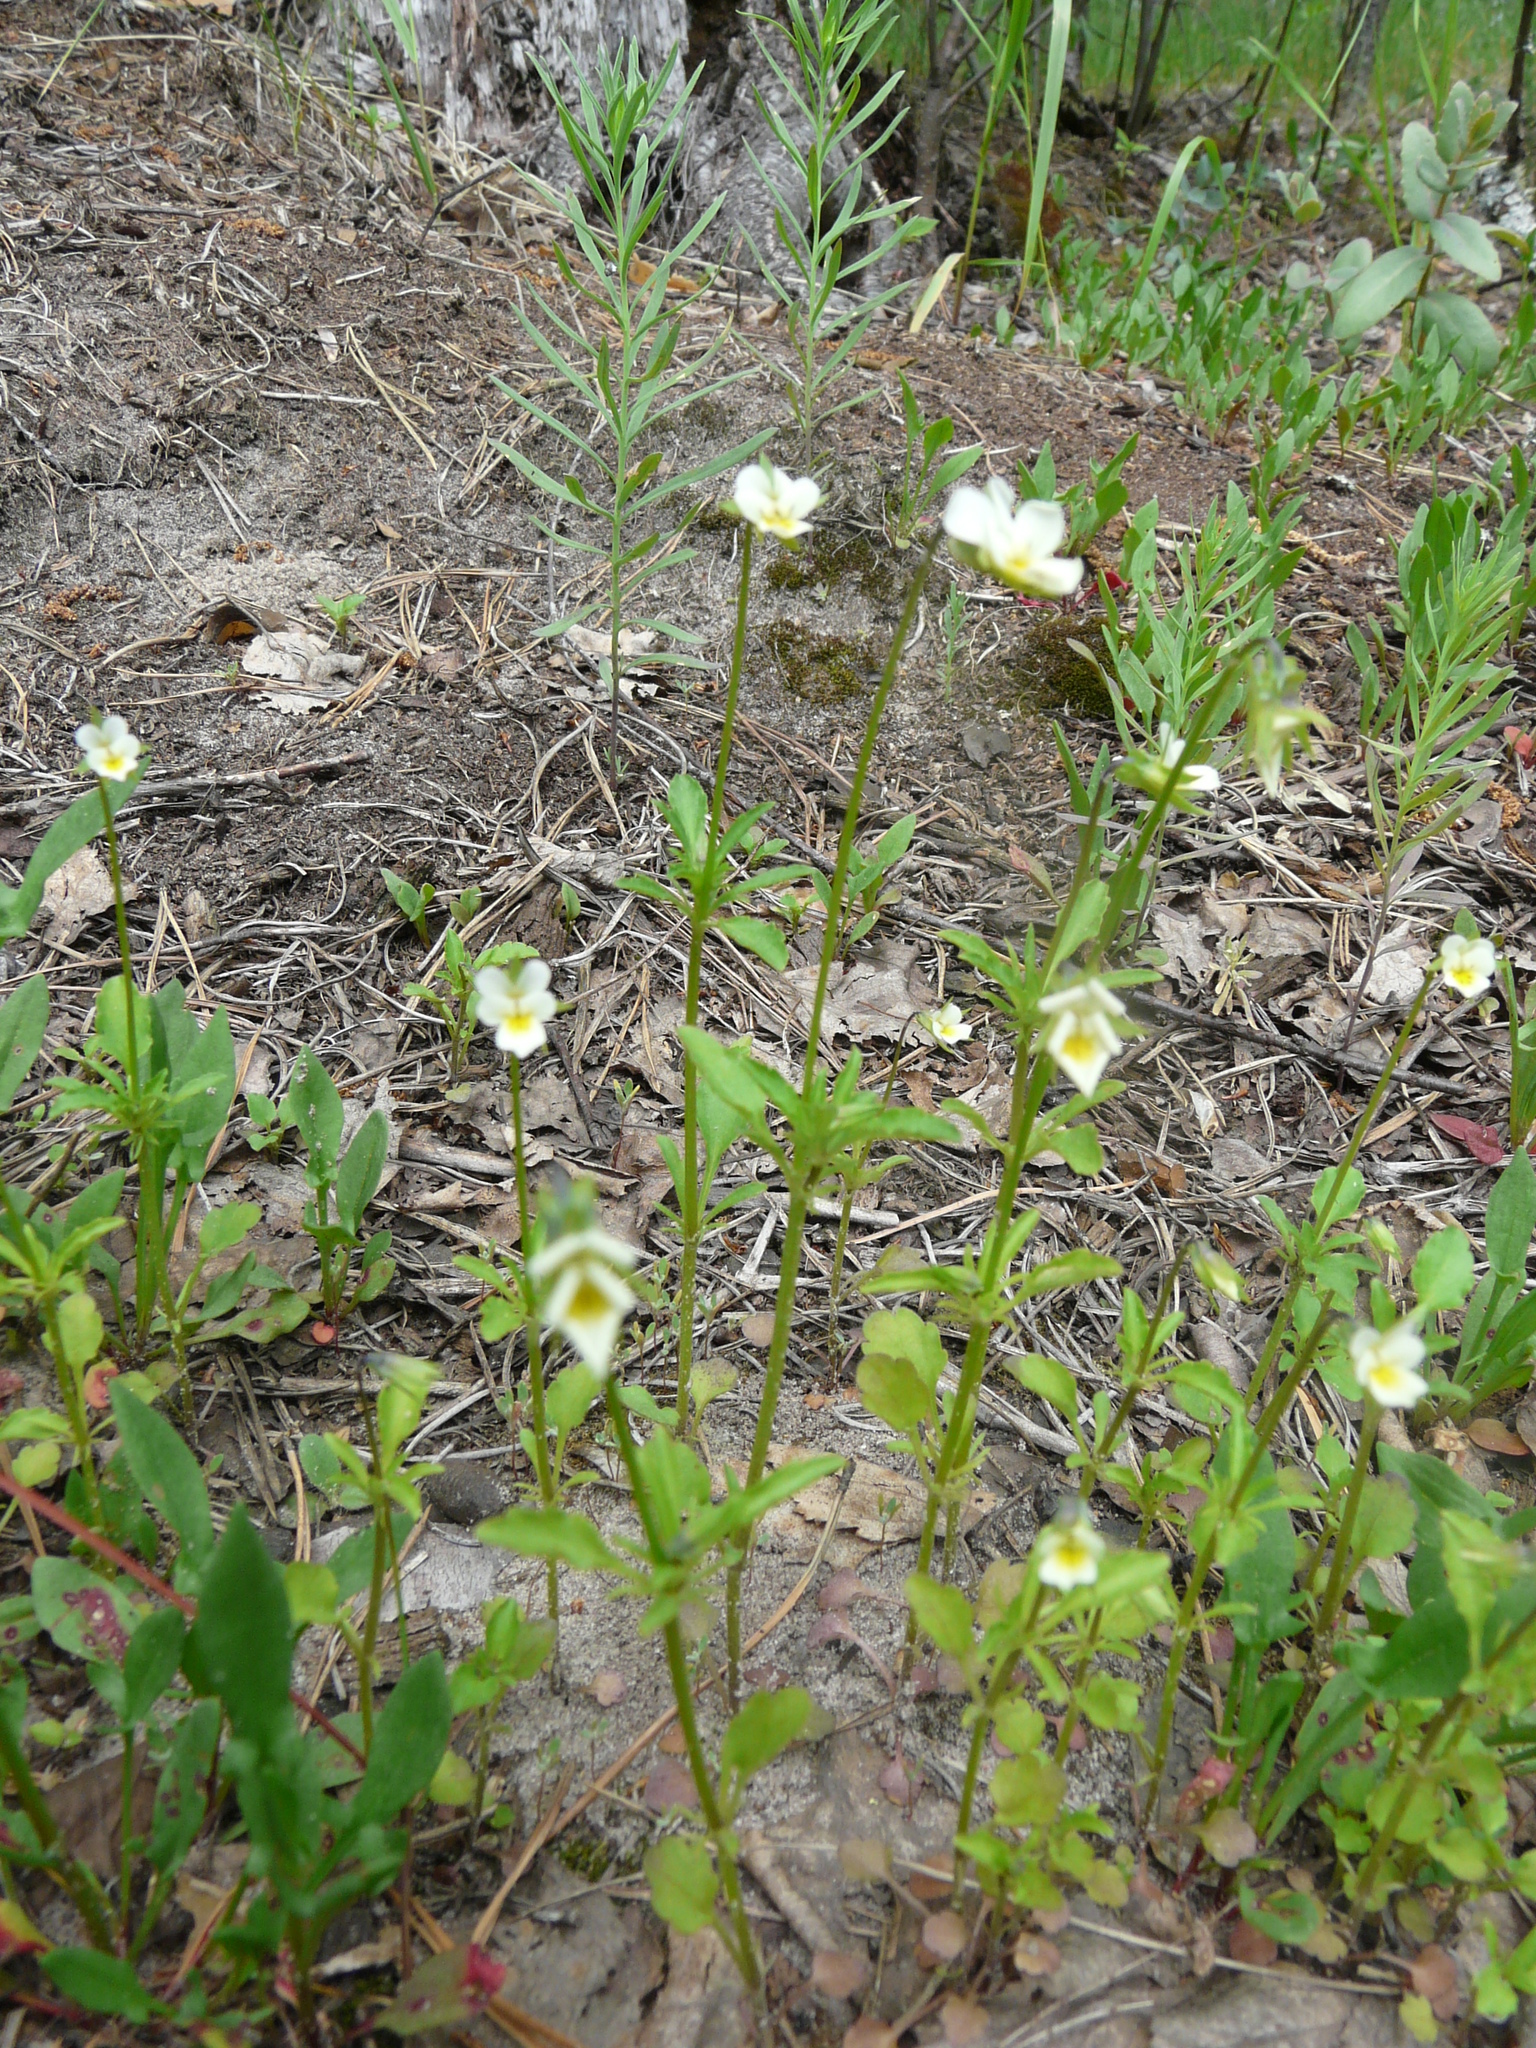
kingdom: Plantae
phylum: Tracheophyta
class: Magnoliopsida
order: Malpighiales
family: Violaceae
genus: Viola
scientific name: Viola arvensis
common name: Field pansy
